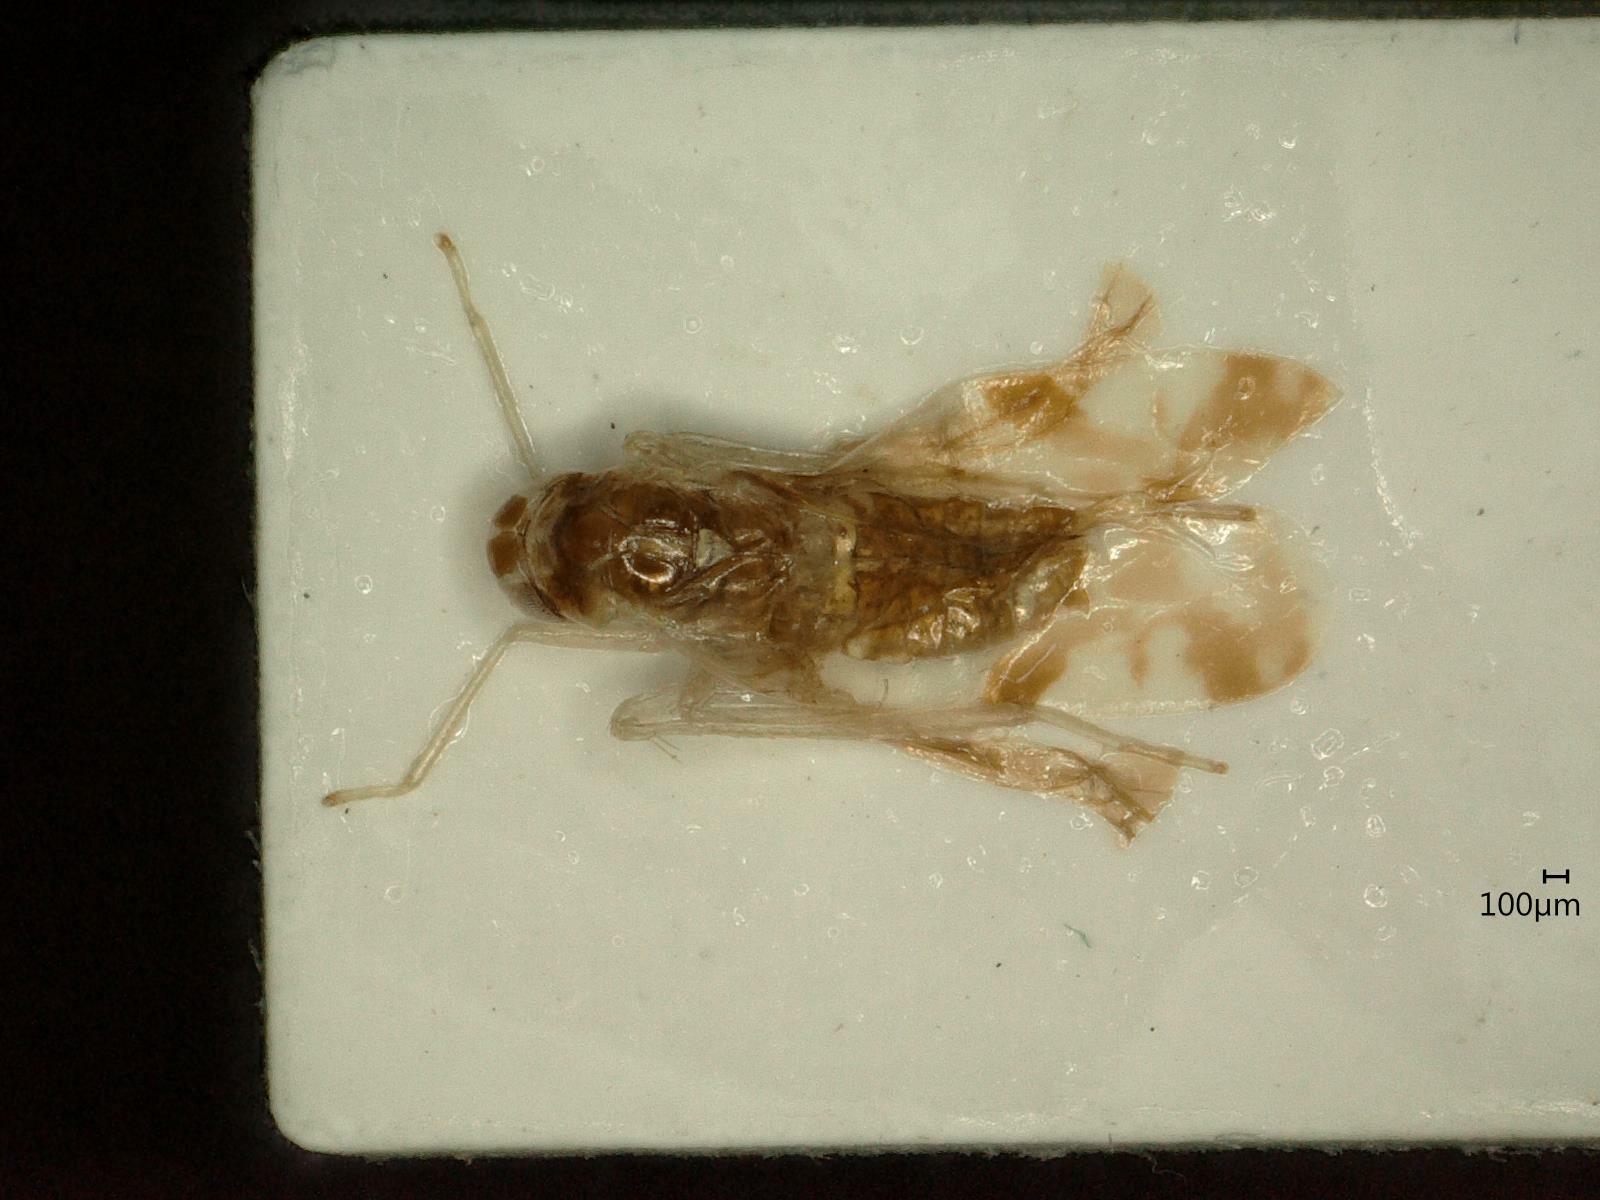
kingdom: Animalia
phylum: Arthropoda
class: Insecta
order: Hemiptera
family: Cicadellidae
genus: Eupteryx
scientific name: Eupteryx atropunctata
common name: Leafhopper
